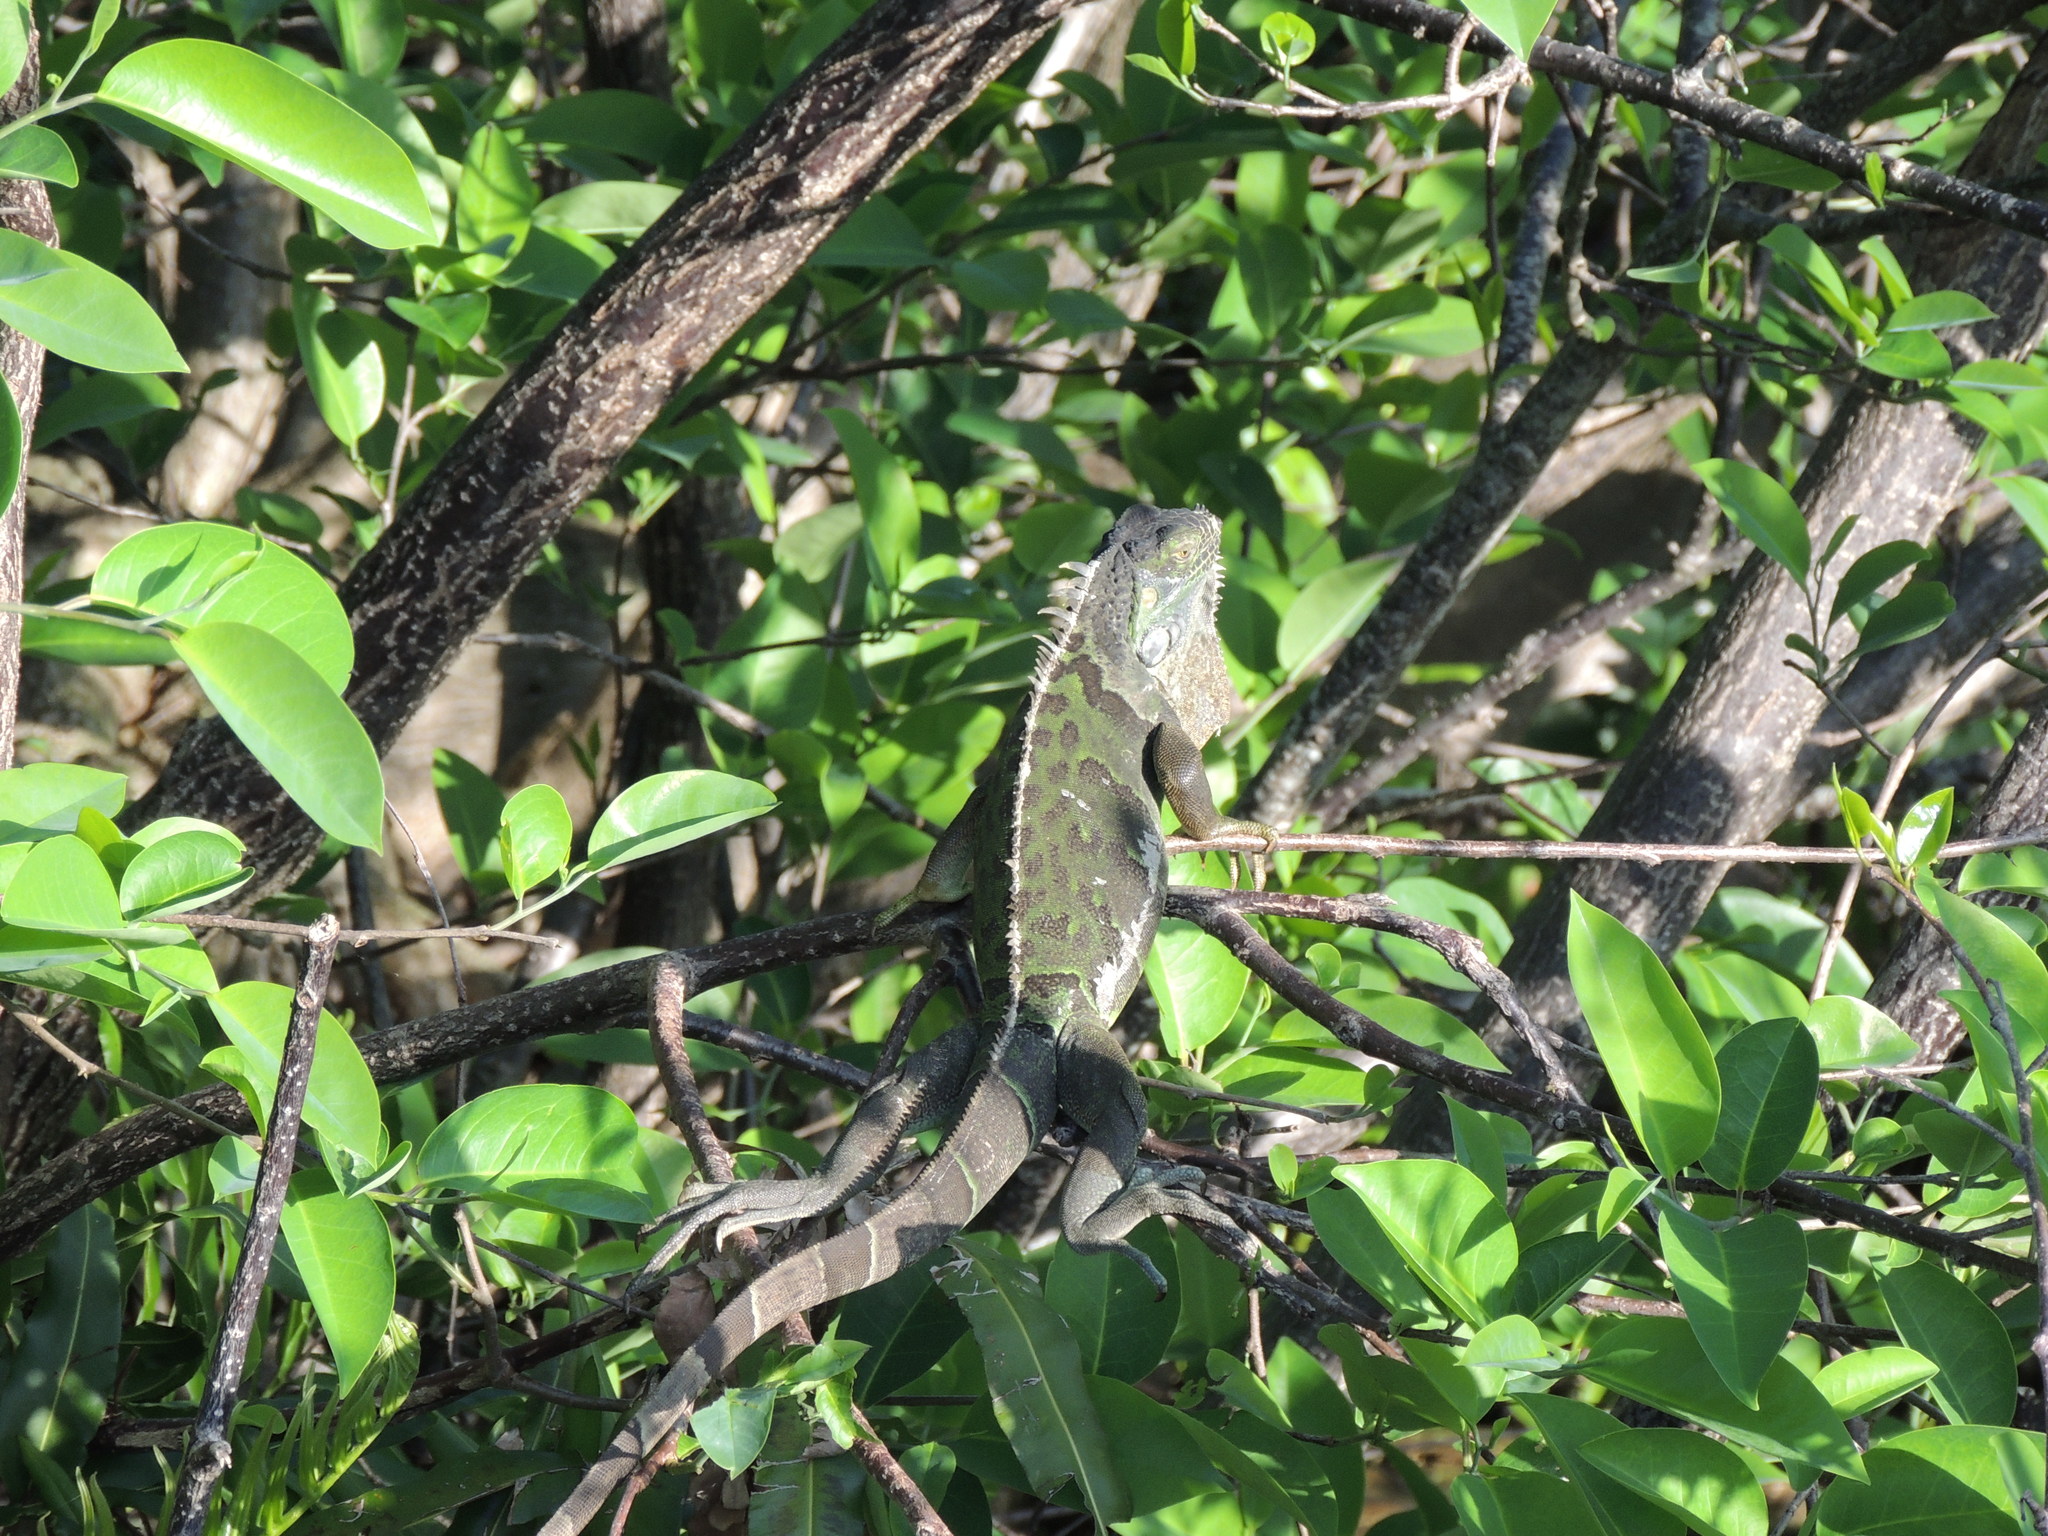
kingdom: Animalia
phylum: Chordata
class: Squamata
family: Iguanidae
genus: Iguana
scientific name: Iguana iguana
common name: Green iguana
